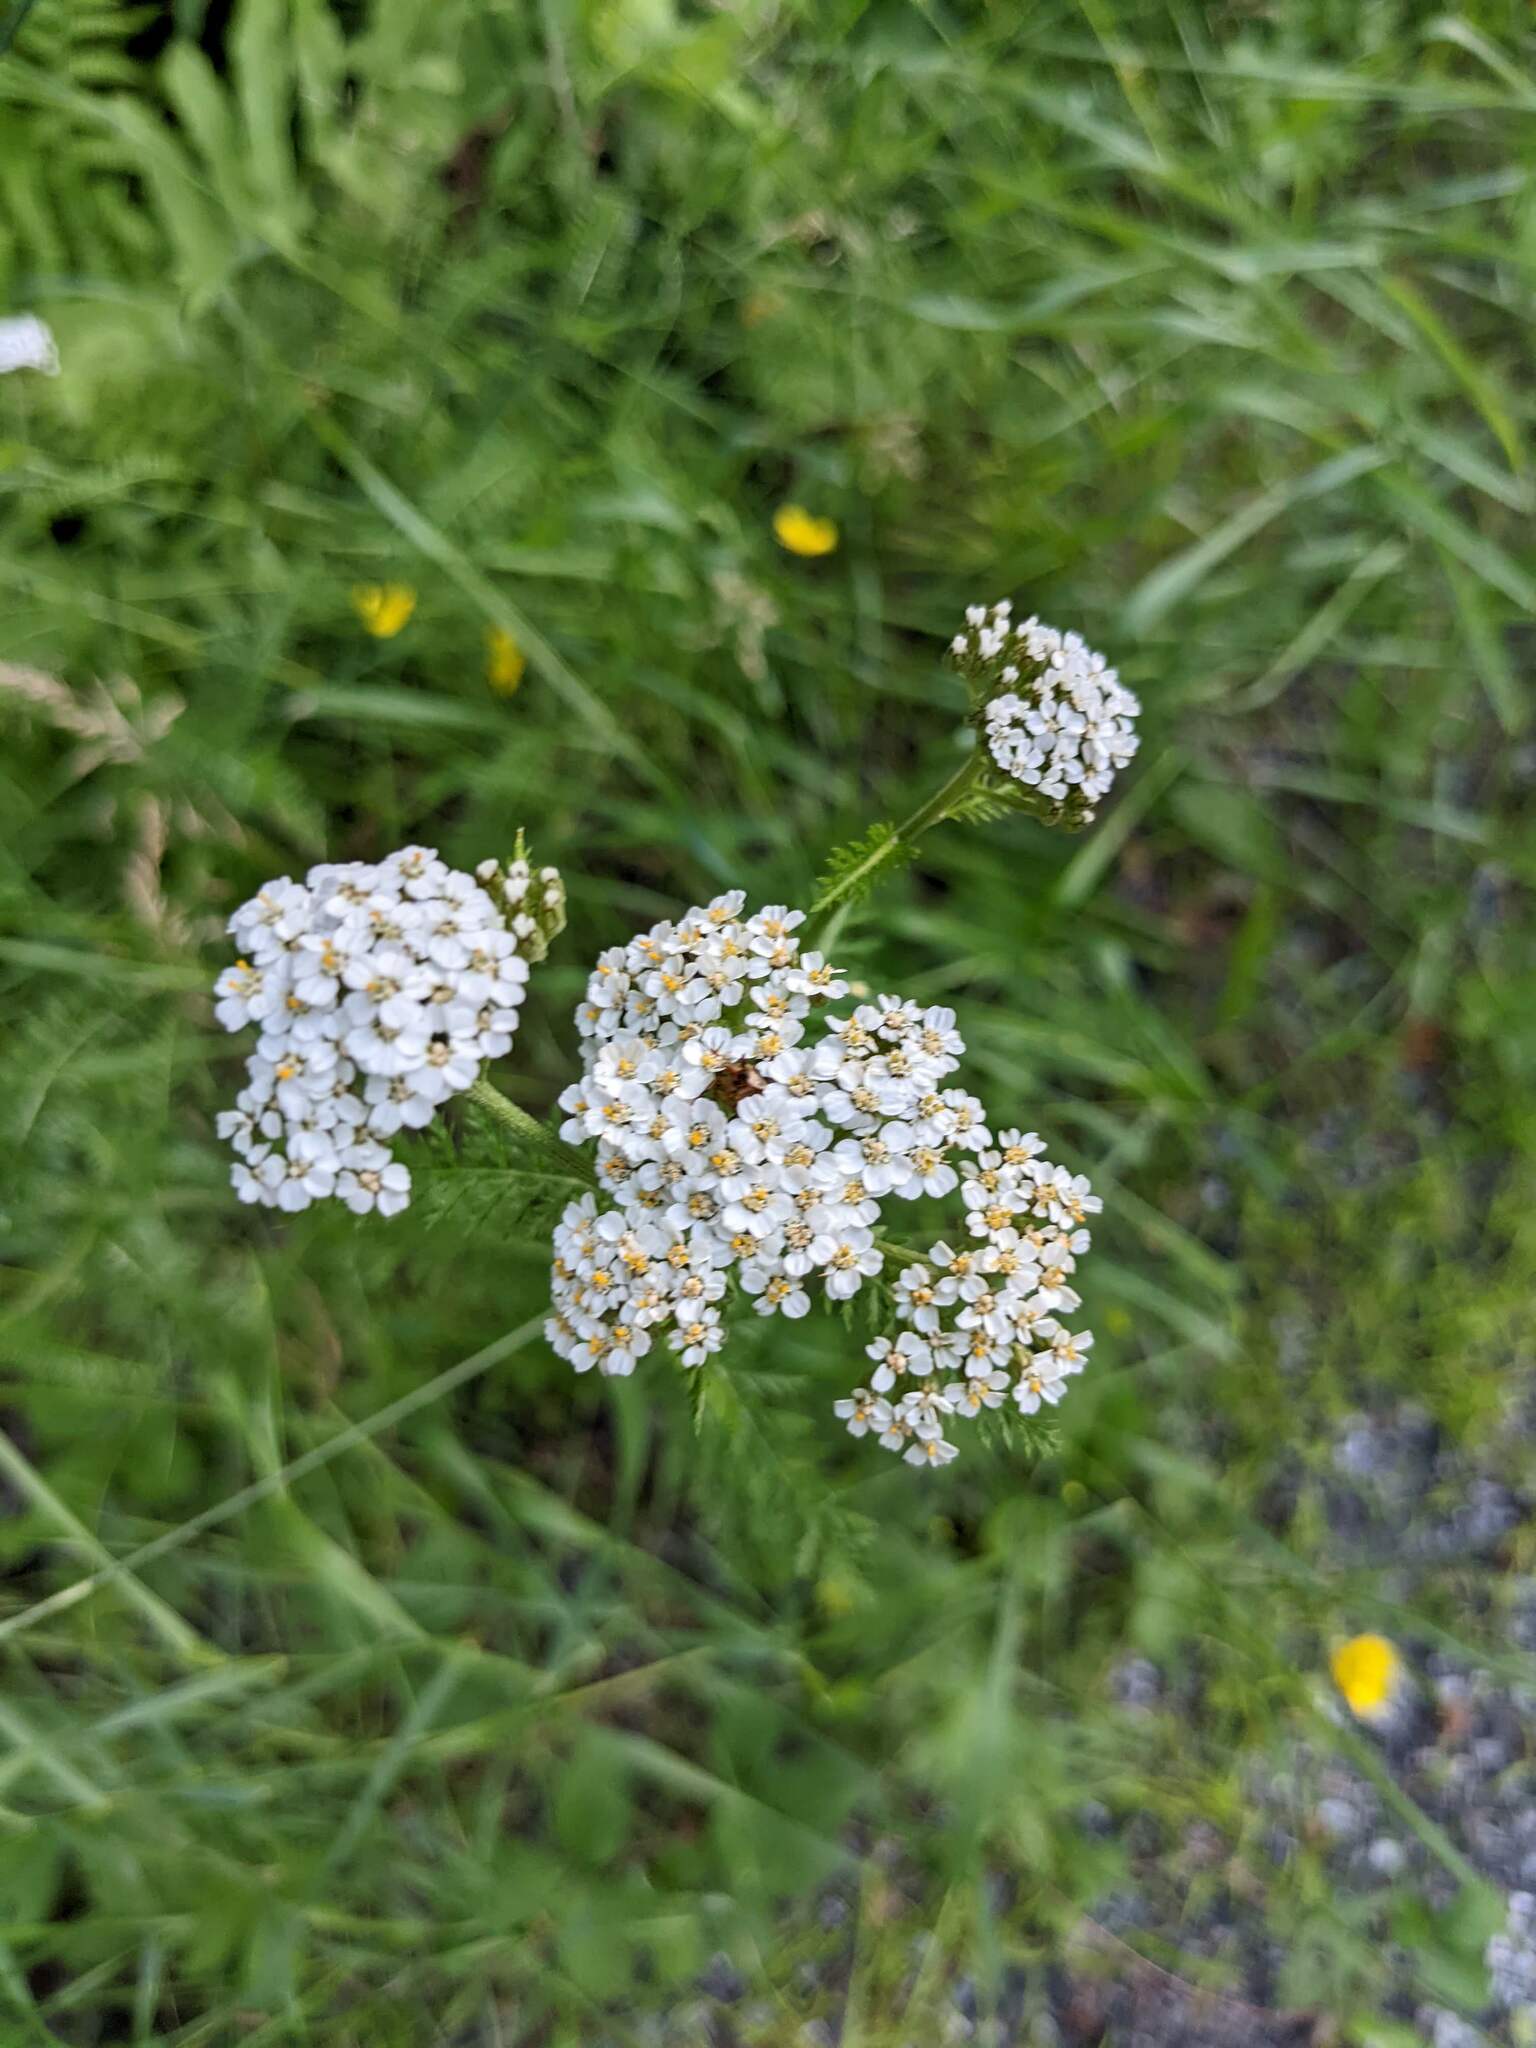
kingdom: Plantae
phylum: Tracheophyta
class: Magnoliopsida
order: Asterales
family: Asteraceae
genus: Achillea
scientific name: Achillea millefolium
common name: Yarrow
